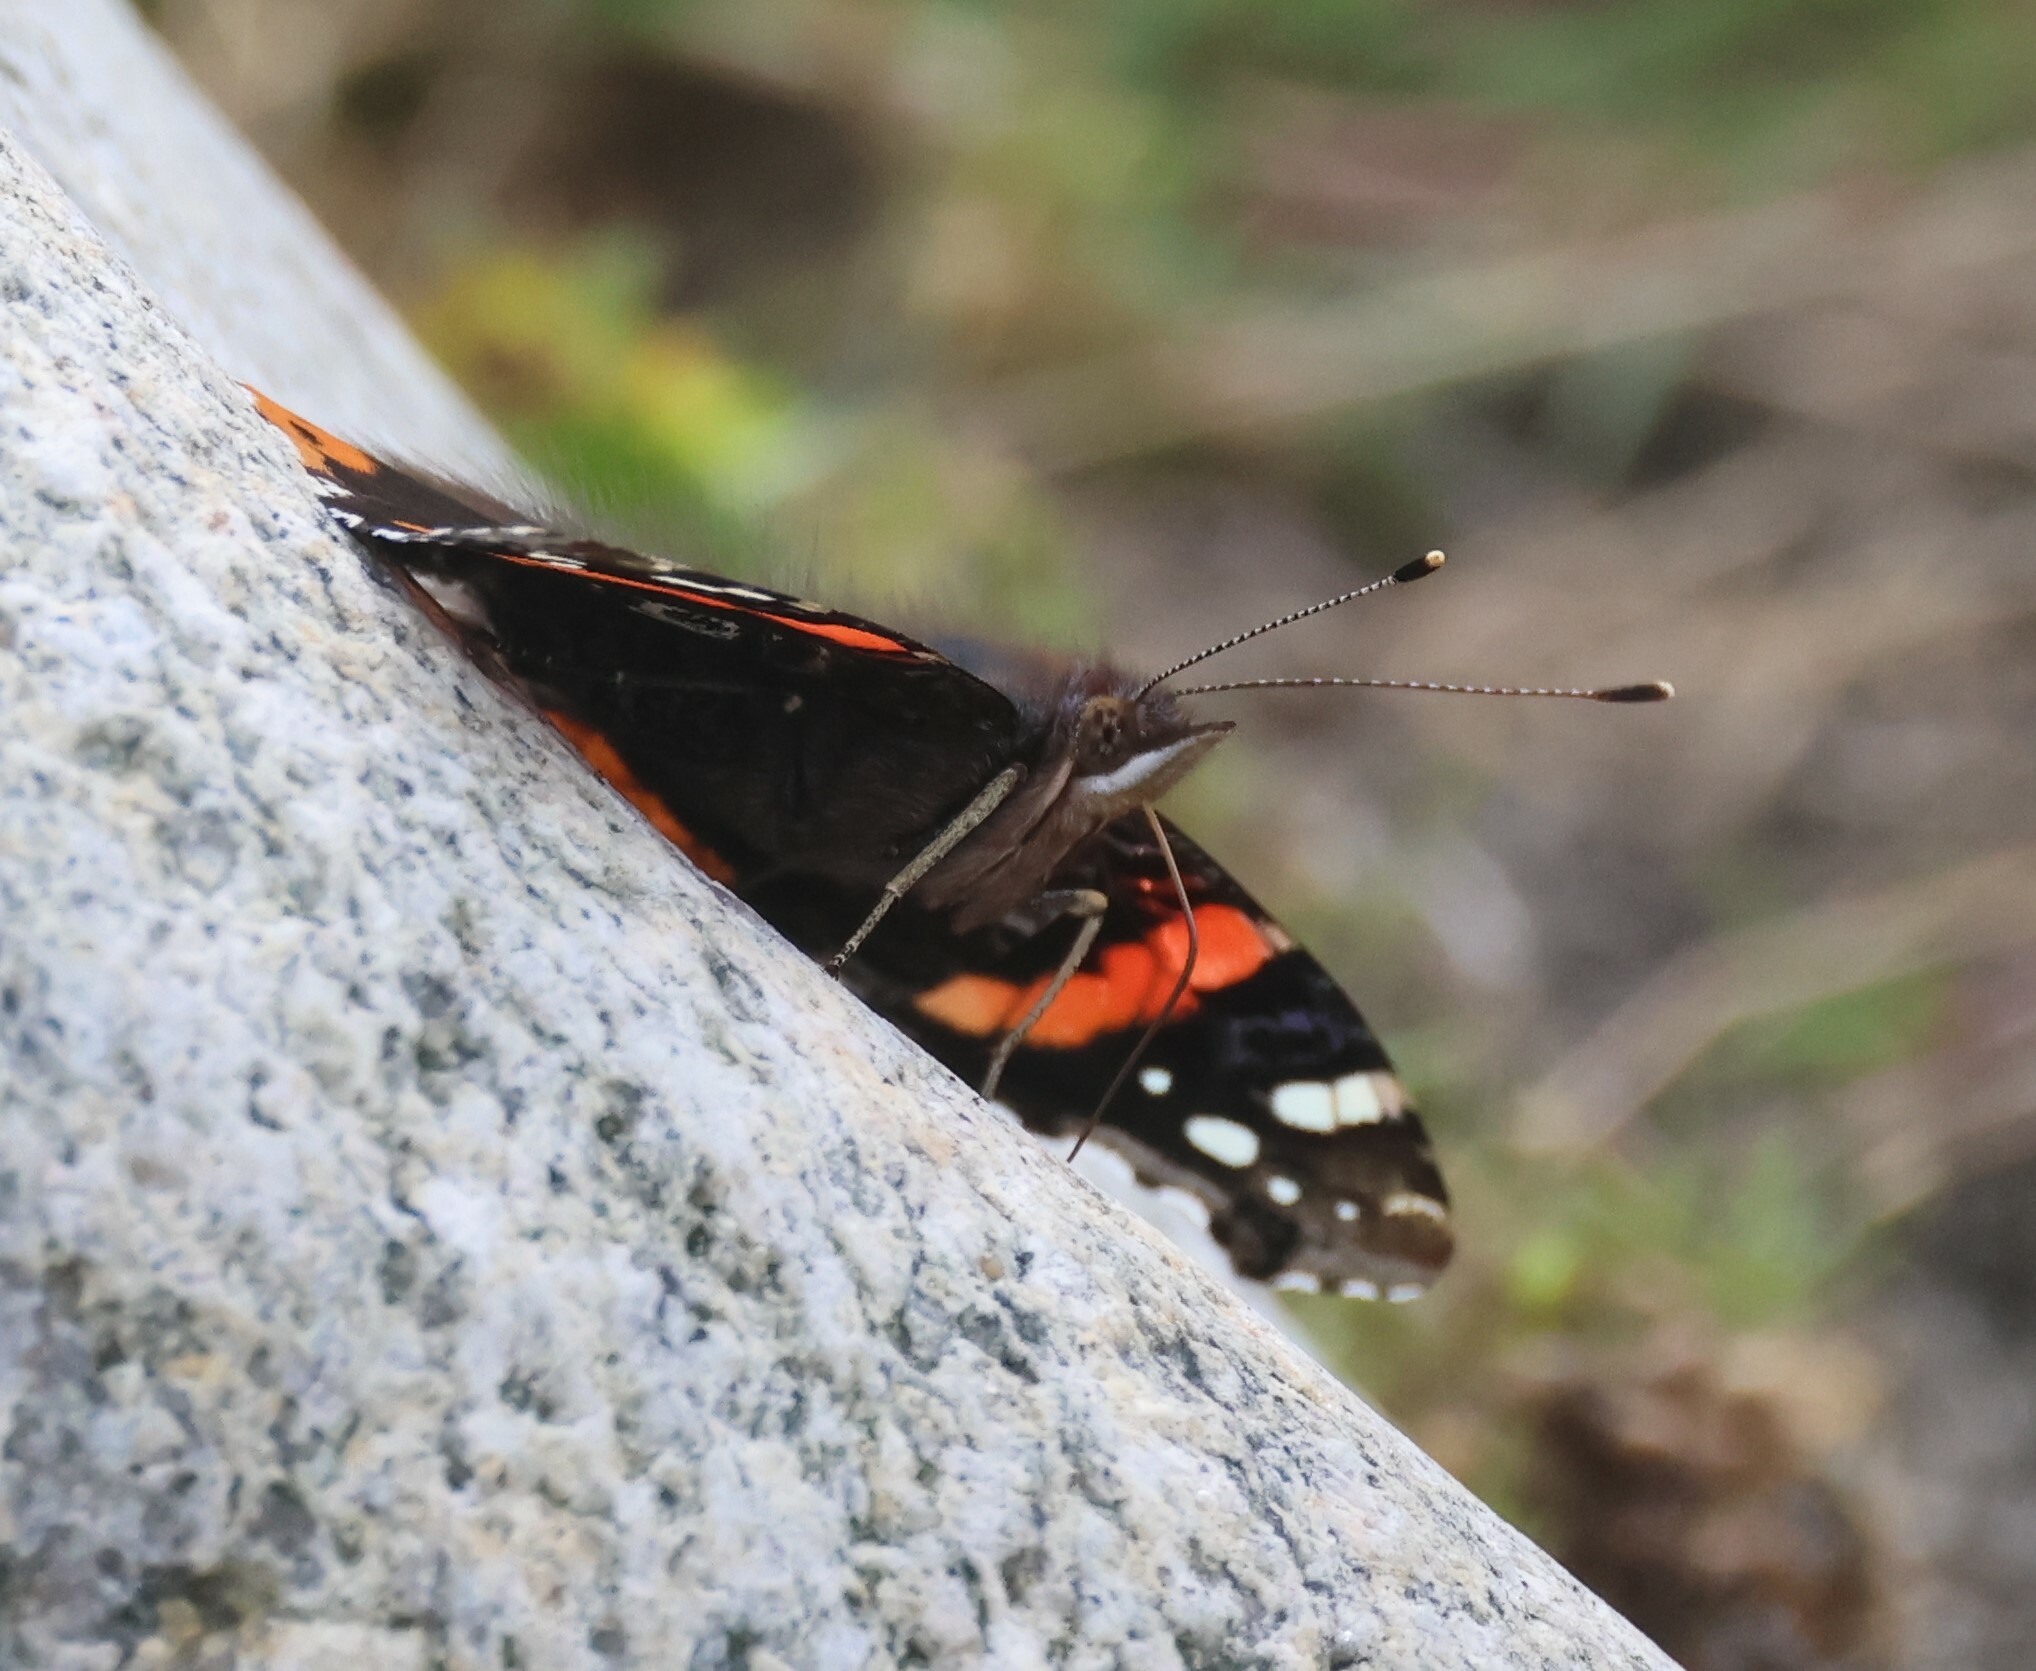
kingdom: Animalia
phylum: Arthropoda
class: Insecta
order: Lepidoptera
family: Nymphalidae
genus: Vanessa
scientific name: Vanessa atalanta
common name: Red admiral
